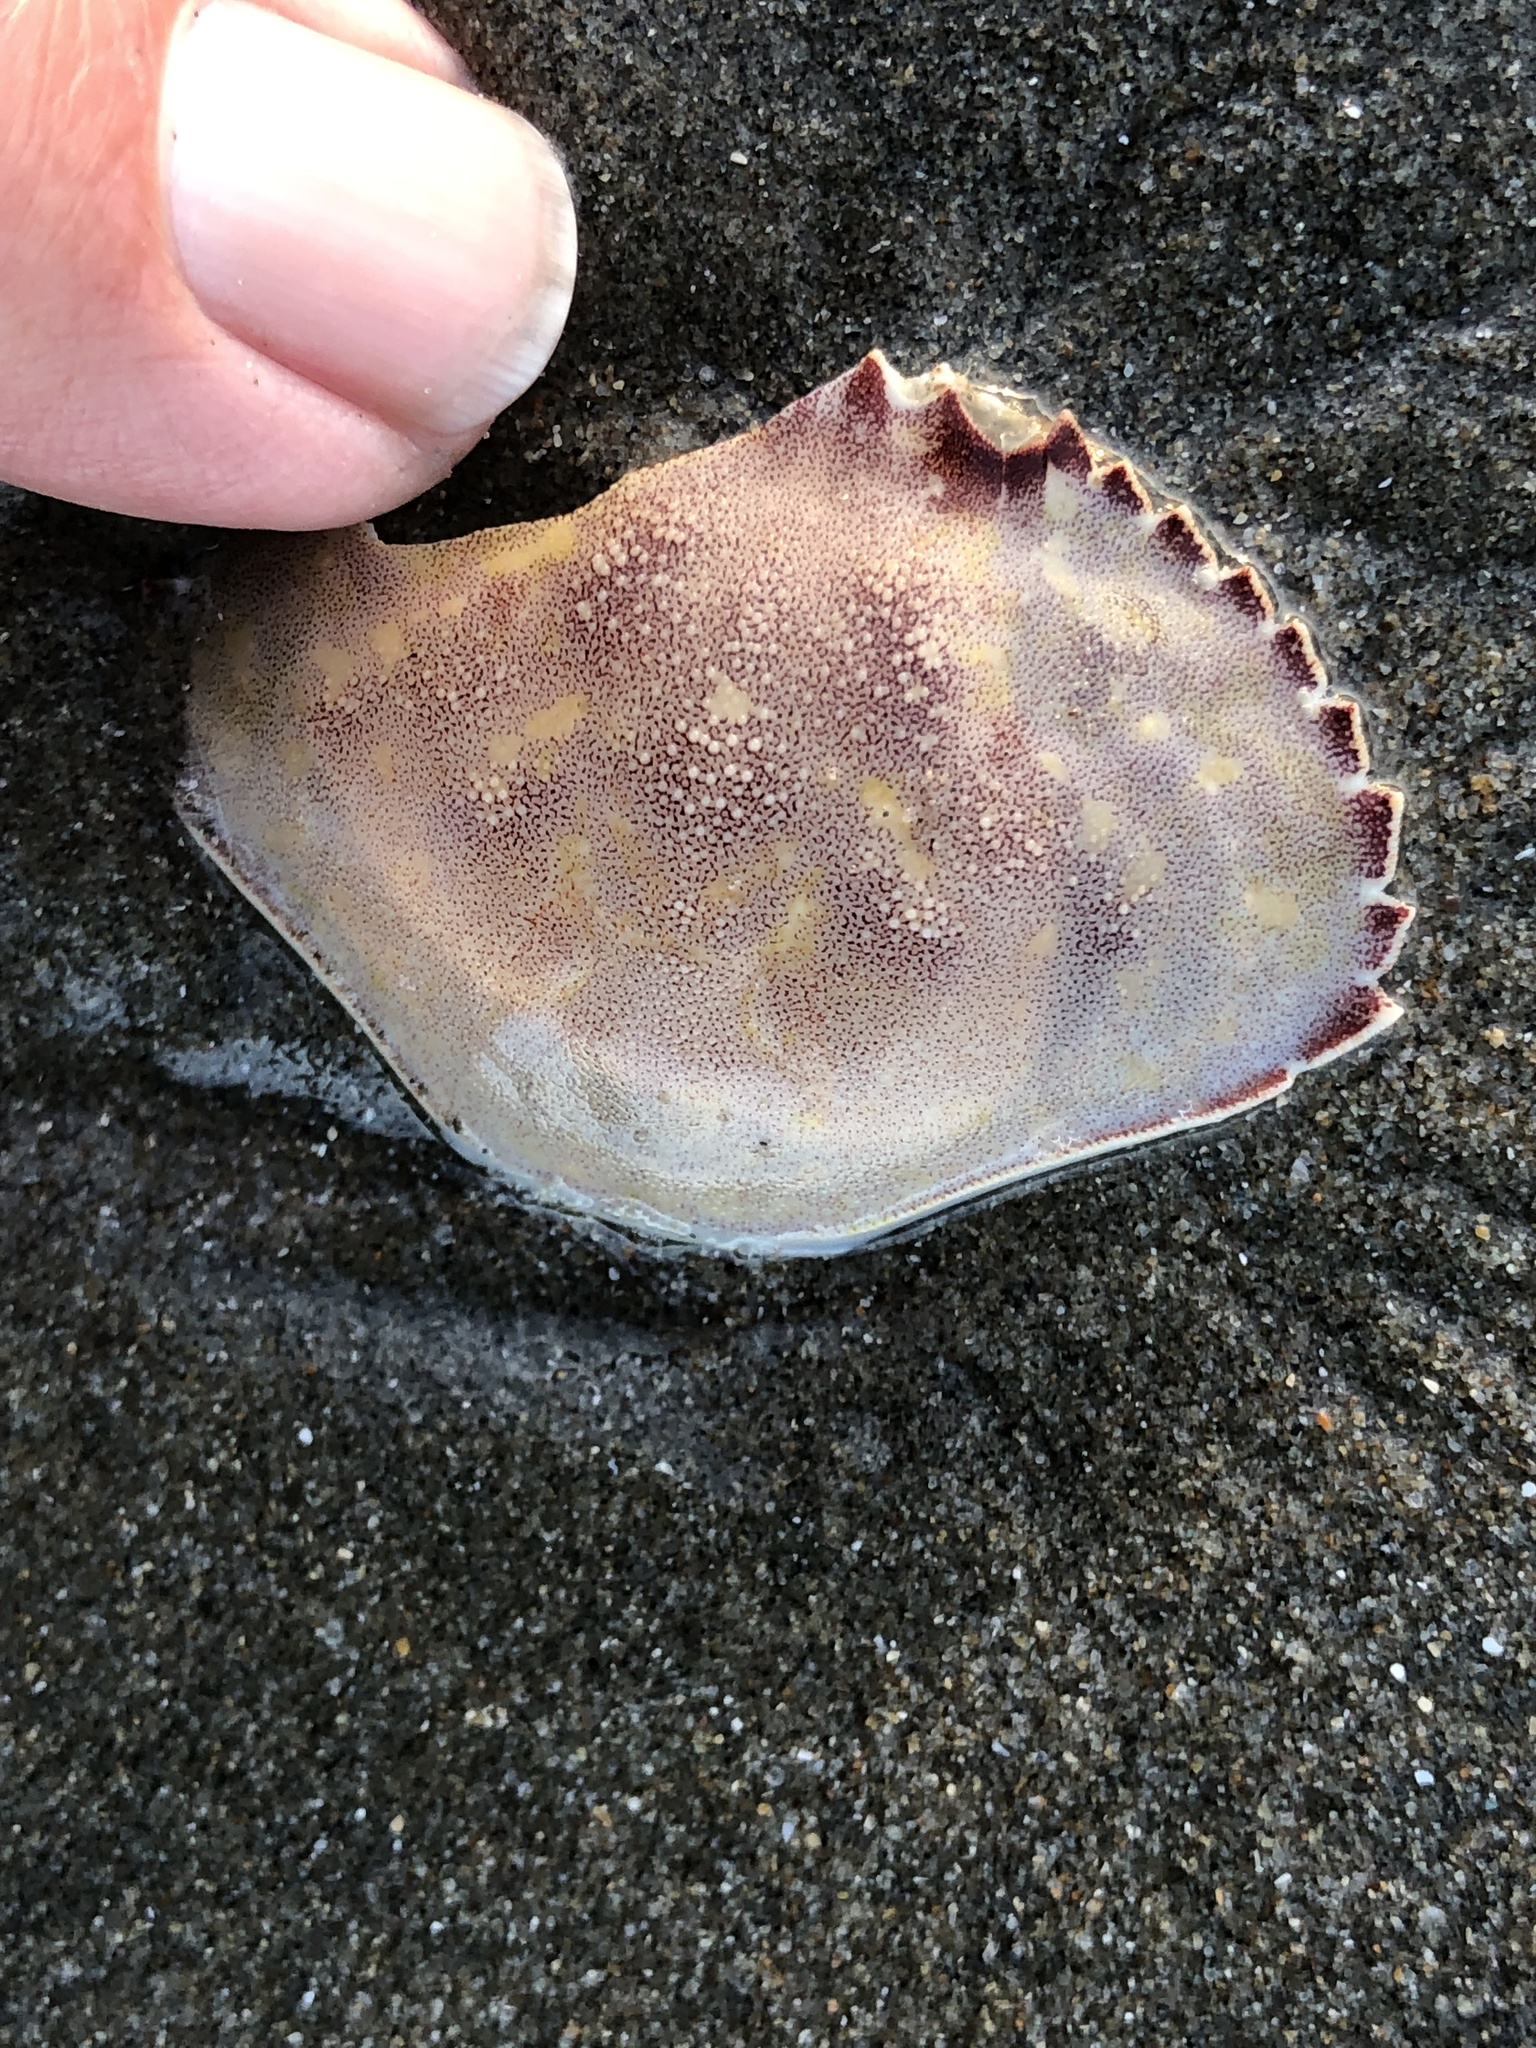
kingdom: Animalia
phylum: Arthropoda
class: Malacostraca
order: Decapoda
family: Cancridae
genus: Metacarcinus
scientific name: Metacarcinus gracilis
